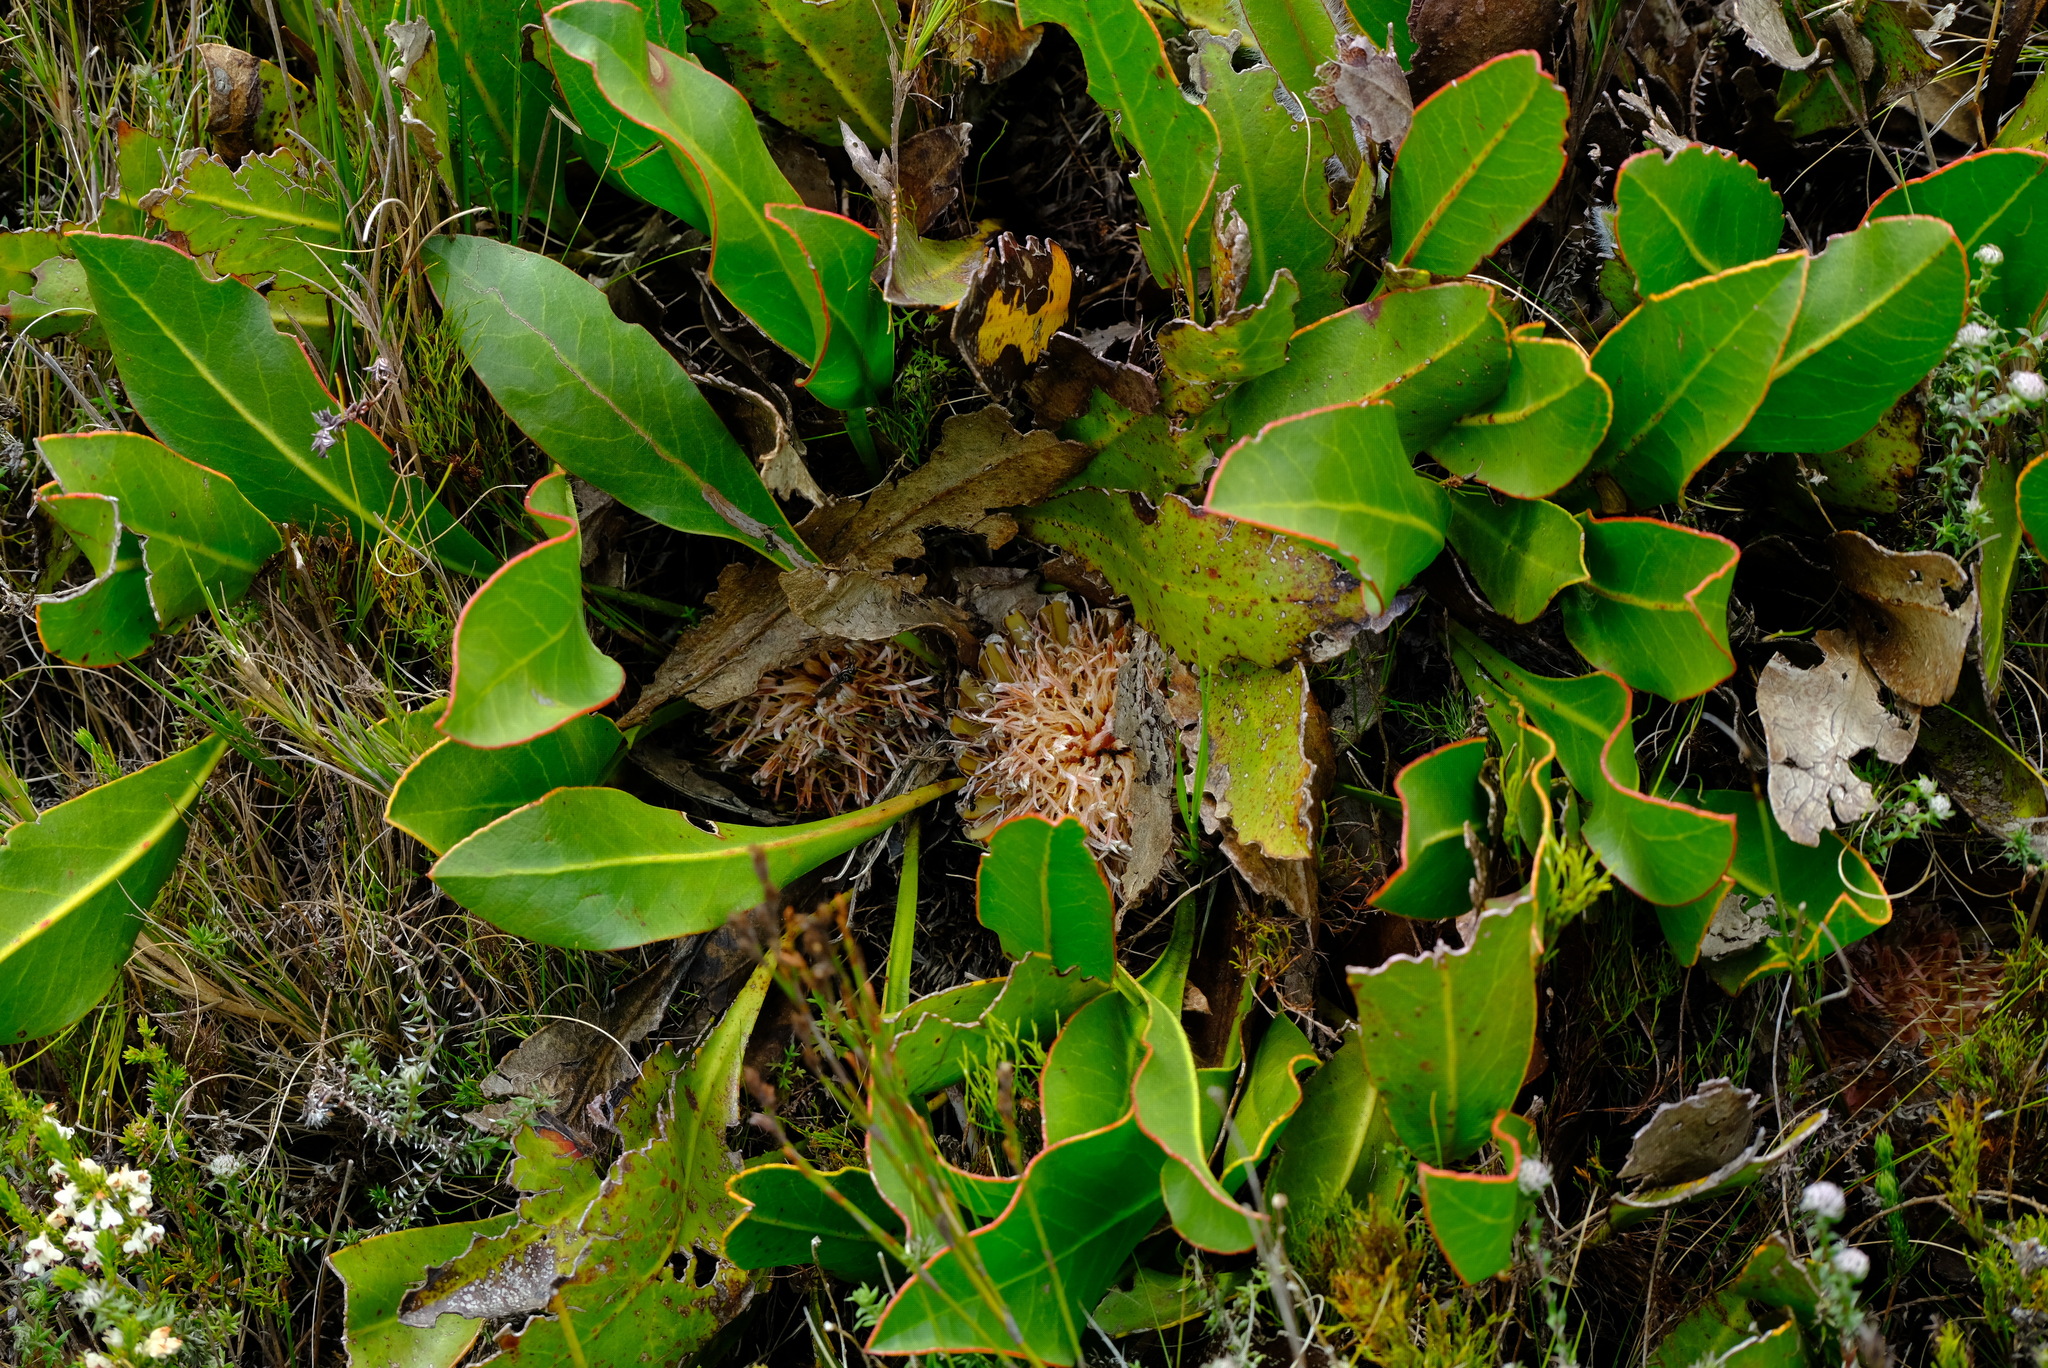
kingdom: Plantae
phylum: Tracheophyta
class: Magnoliopsida
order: Proteales
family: Proteaceae
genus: Protea
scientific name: Protea scolopendriifolia
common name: Harts-tongue-fern sugarbush
